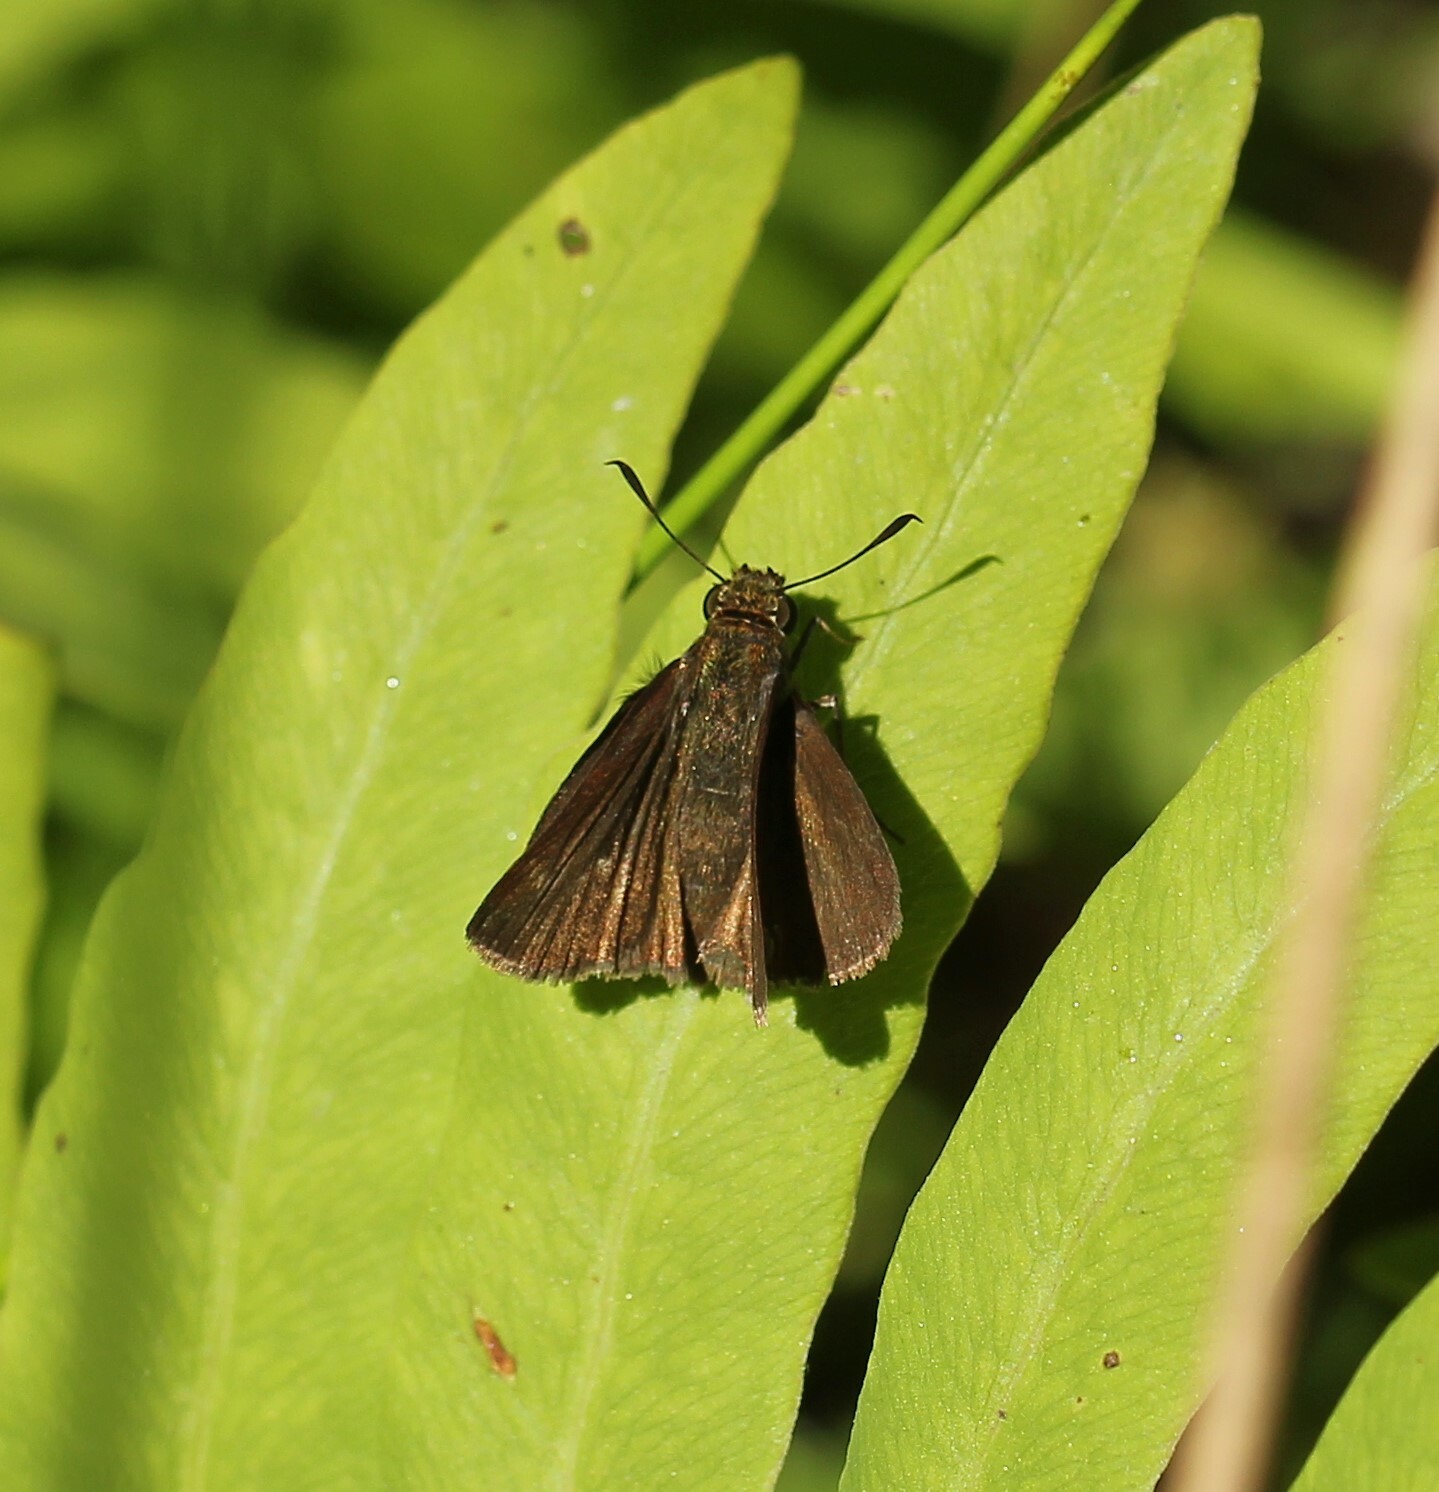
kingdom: Animalia
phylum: Arthropoda
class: Insecta
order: Lepidoptera
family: Hesperiidae
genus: Euphyes
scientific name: Euphyes vestris
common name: Dun skipper
